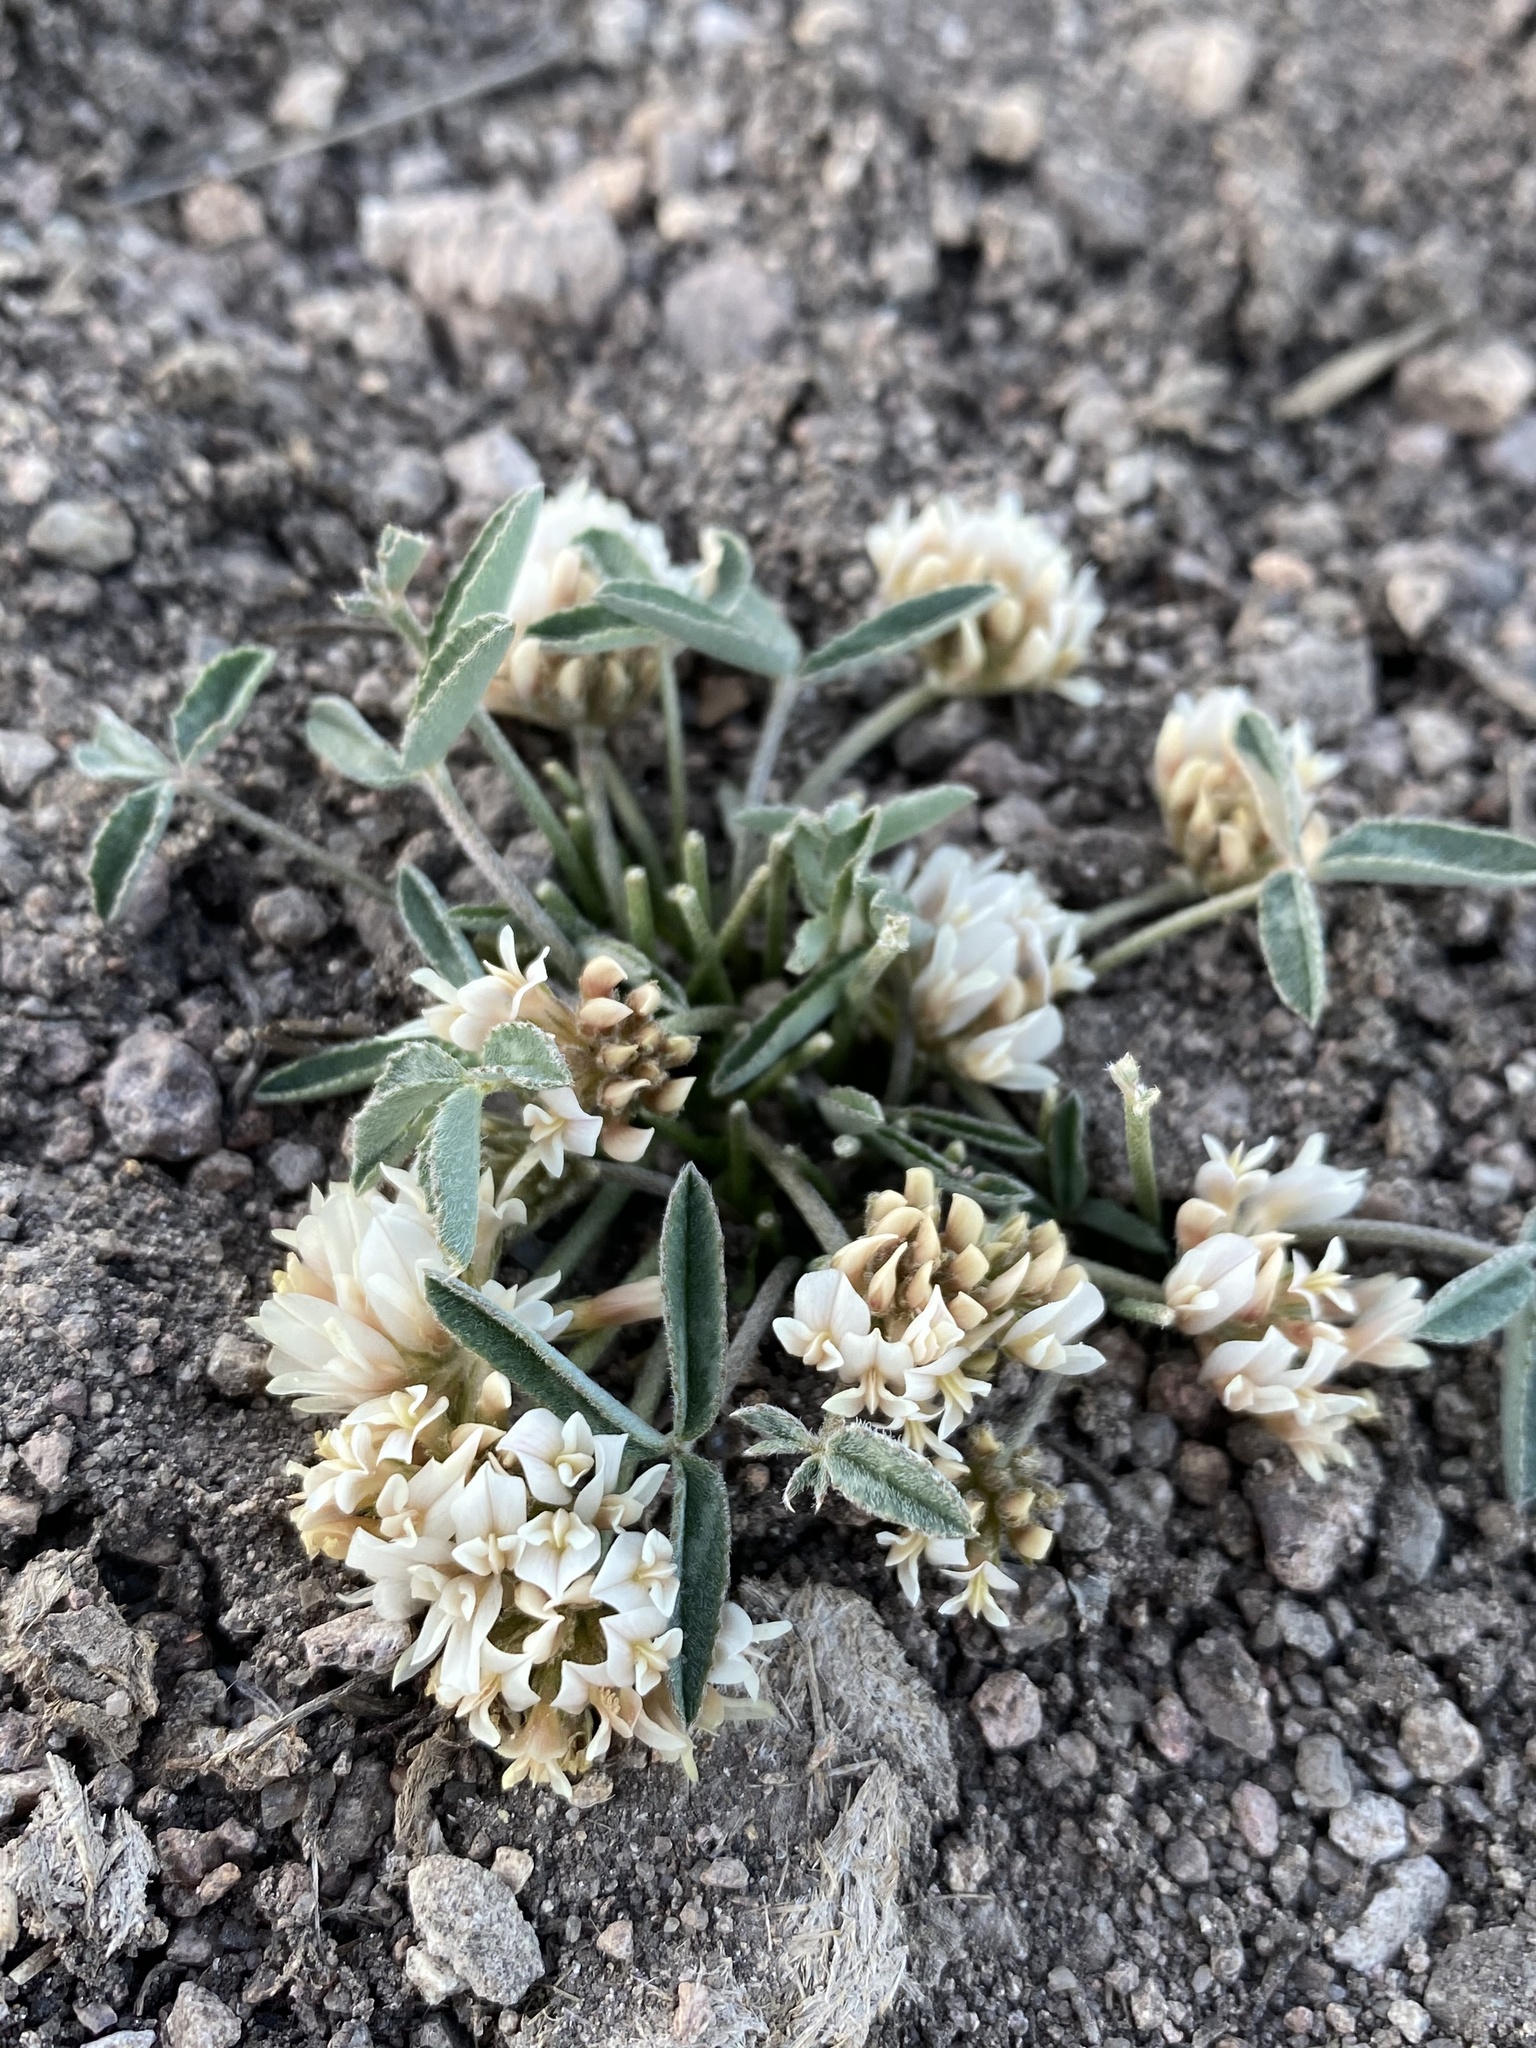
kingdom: Plantae
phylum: Tracheophyta
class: Magnoliopsida
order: Fabales
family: Fabaceae
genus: Trifolium
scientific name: Trifolium gymnocarpon
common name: Tufted clover
